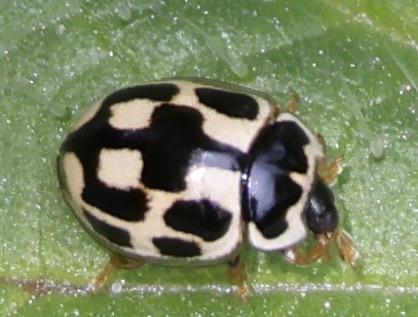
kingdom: Animalia
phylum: Arthropoda
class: Insecta
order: Coleoptera
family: Coccinellidae
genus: Propylaea
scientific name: Propylaea quatuordecimpunctata
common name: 14-spotted ladybird beetle
